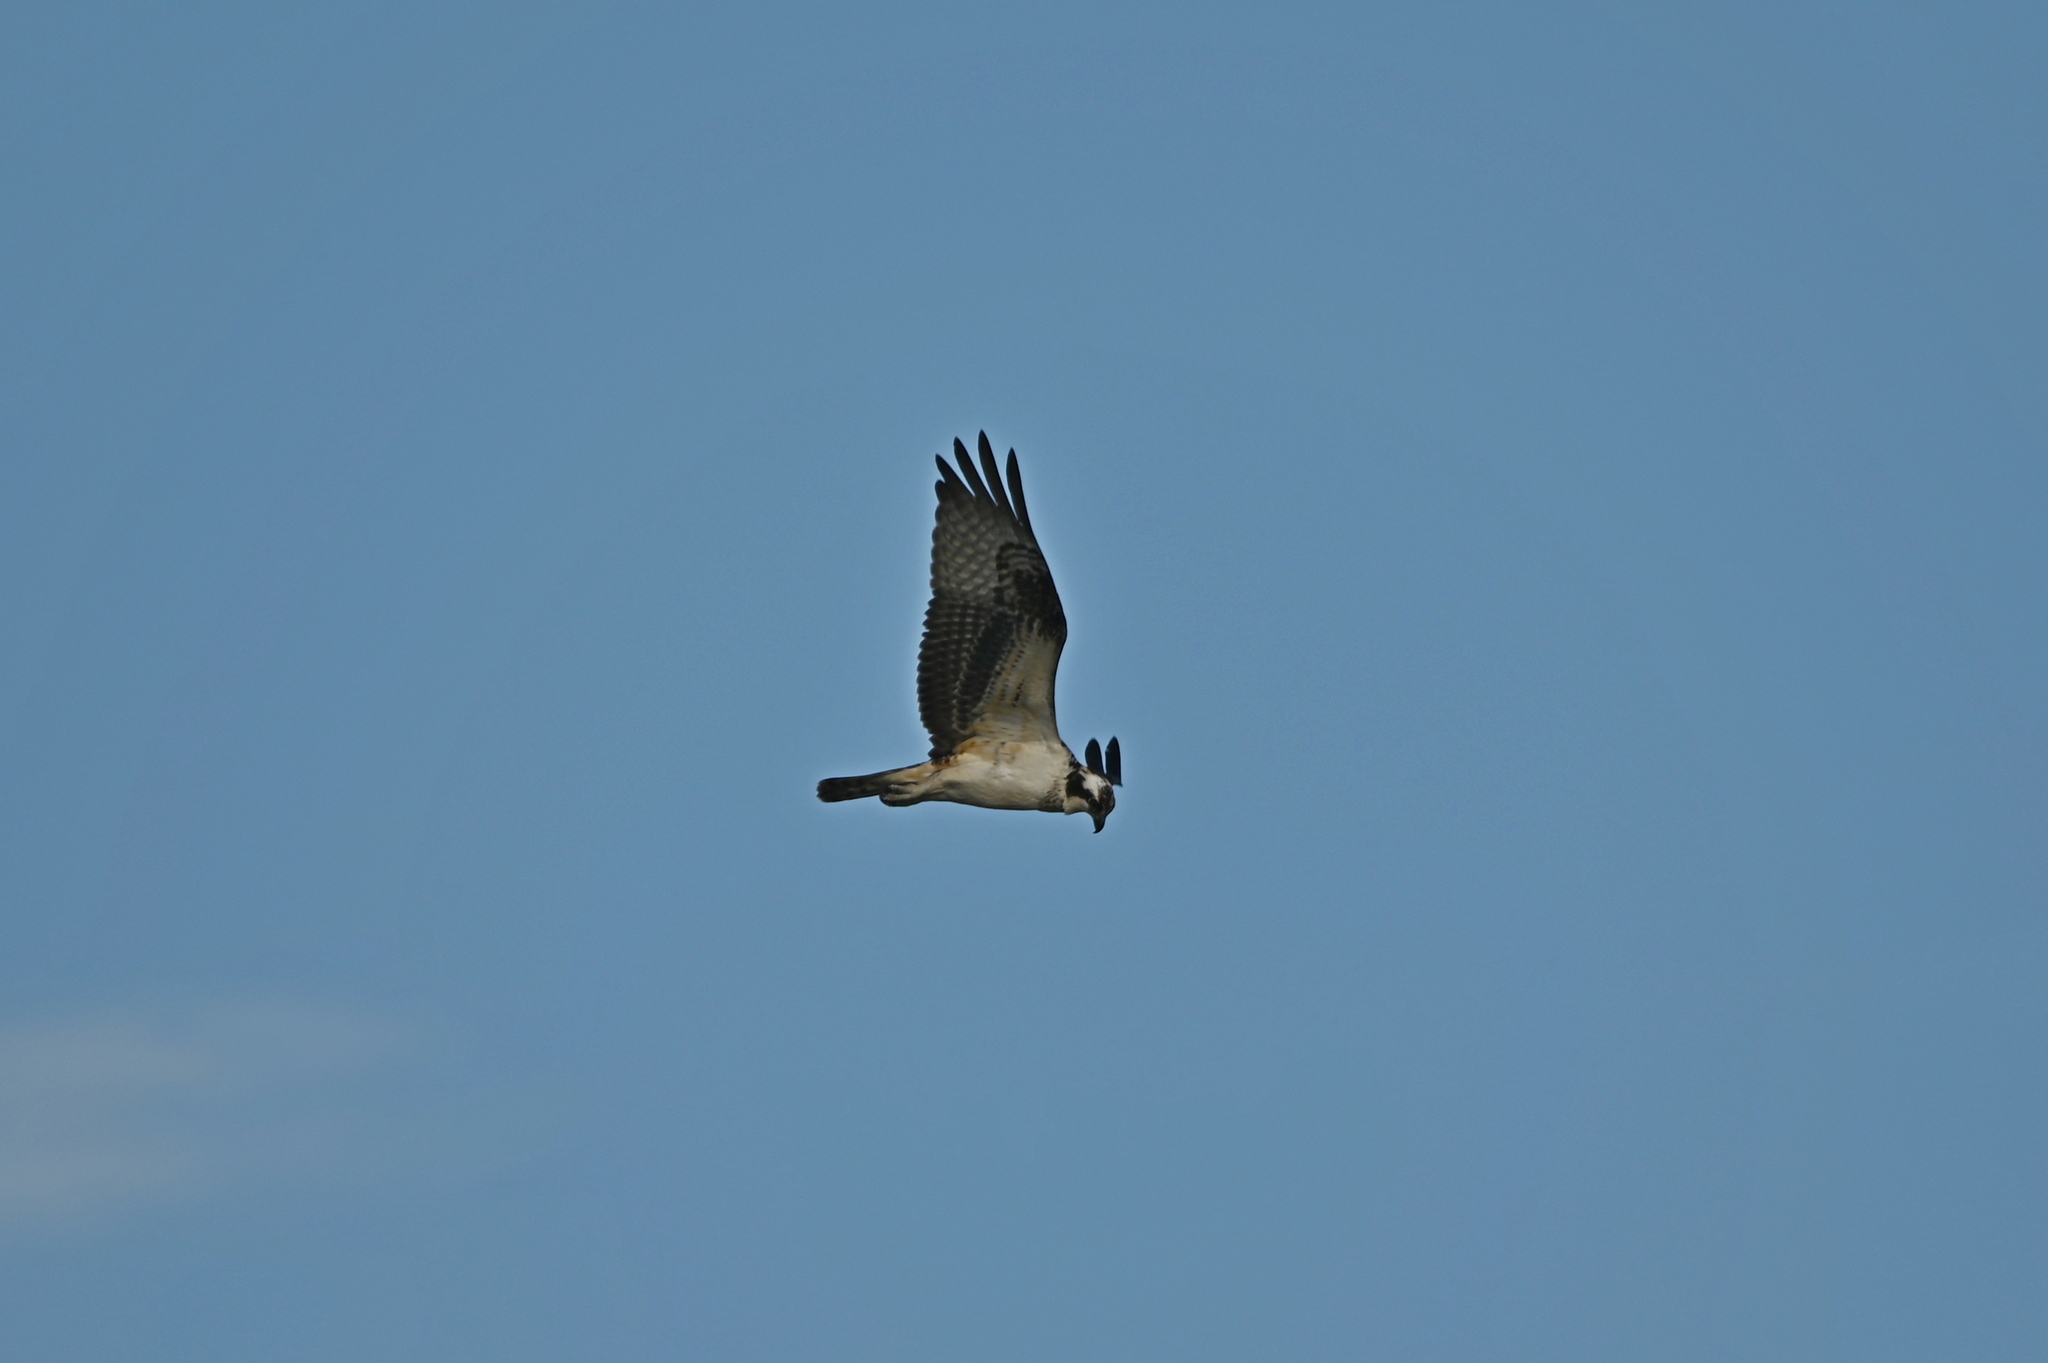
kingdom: Animalia
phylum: Chordata
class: Aves
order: Accipitriformes
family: Pandionidae
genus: Pandion
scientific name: Pandion haliaetus
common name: Osprey
